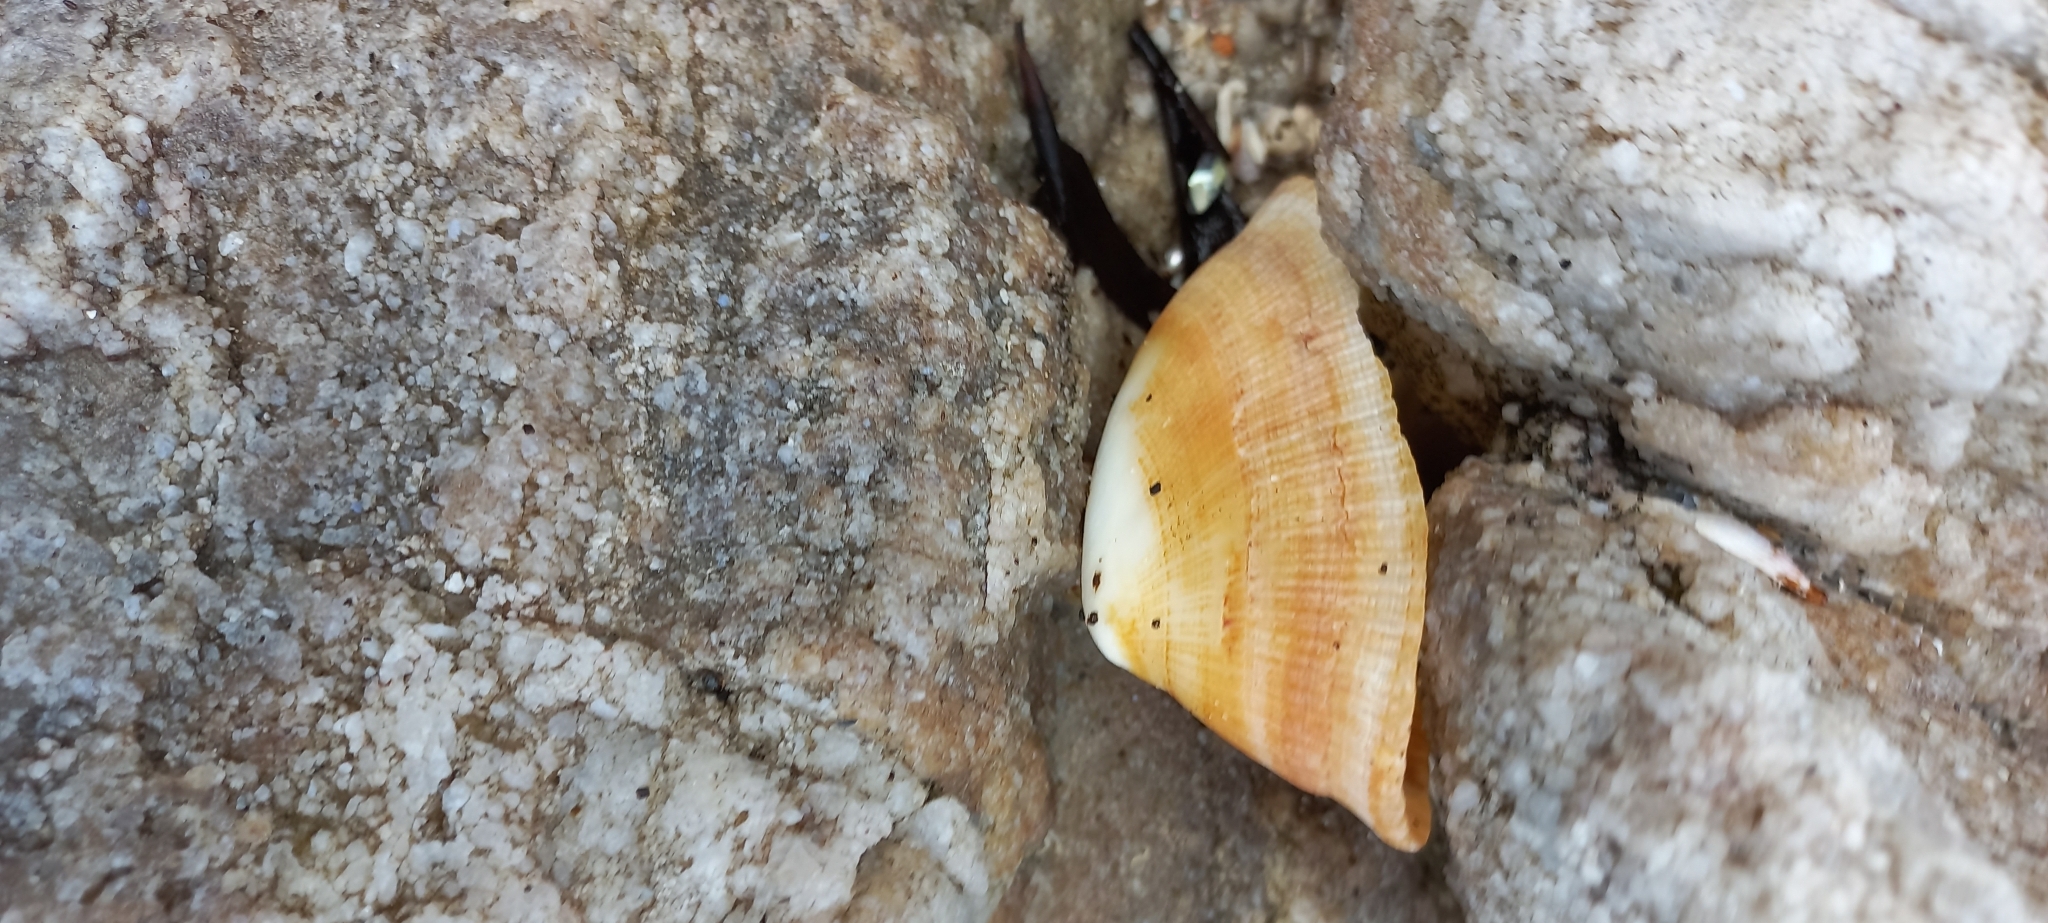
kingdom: Animalia
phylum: Mollusca
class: Gastropoda
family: Patellidae
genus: Cymbula
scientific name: Cymbula compressa
